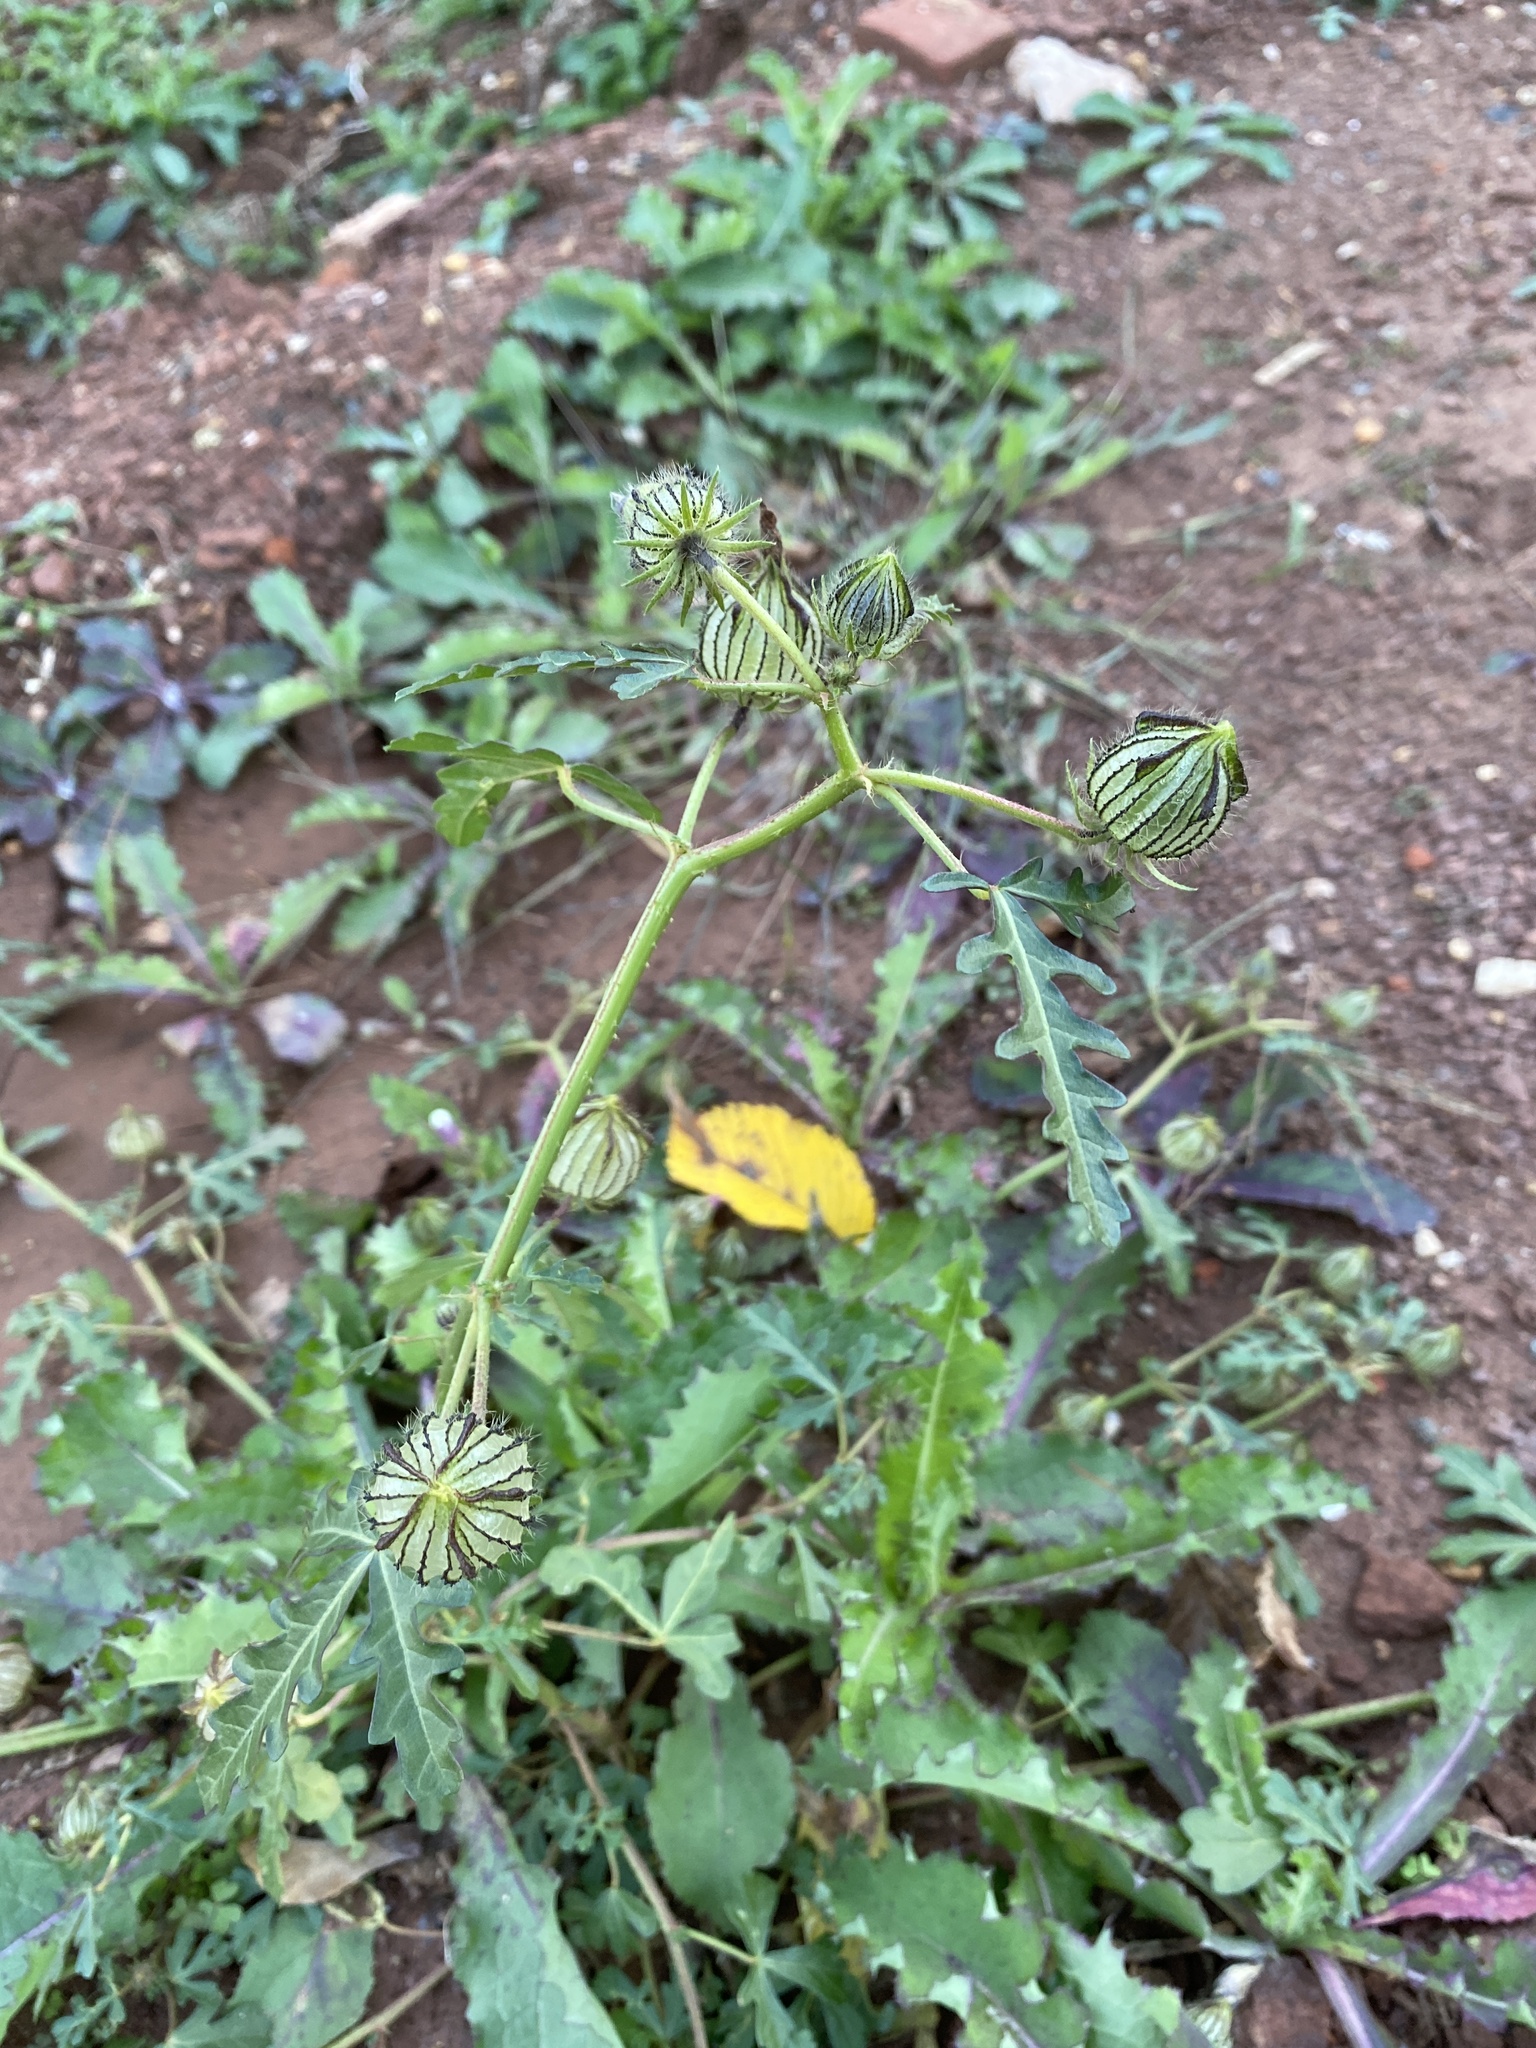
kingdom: Plantae
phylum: Tracheophyta
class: Magnoliopsida
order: Malvales
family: Malvaceae
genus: Hibiscus
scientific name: Hibiscus trionum
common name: Bladder ketmia
